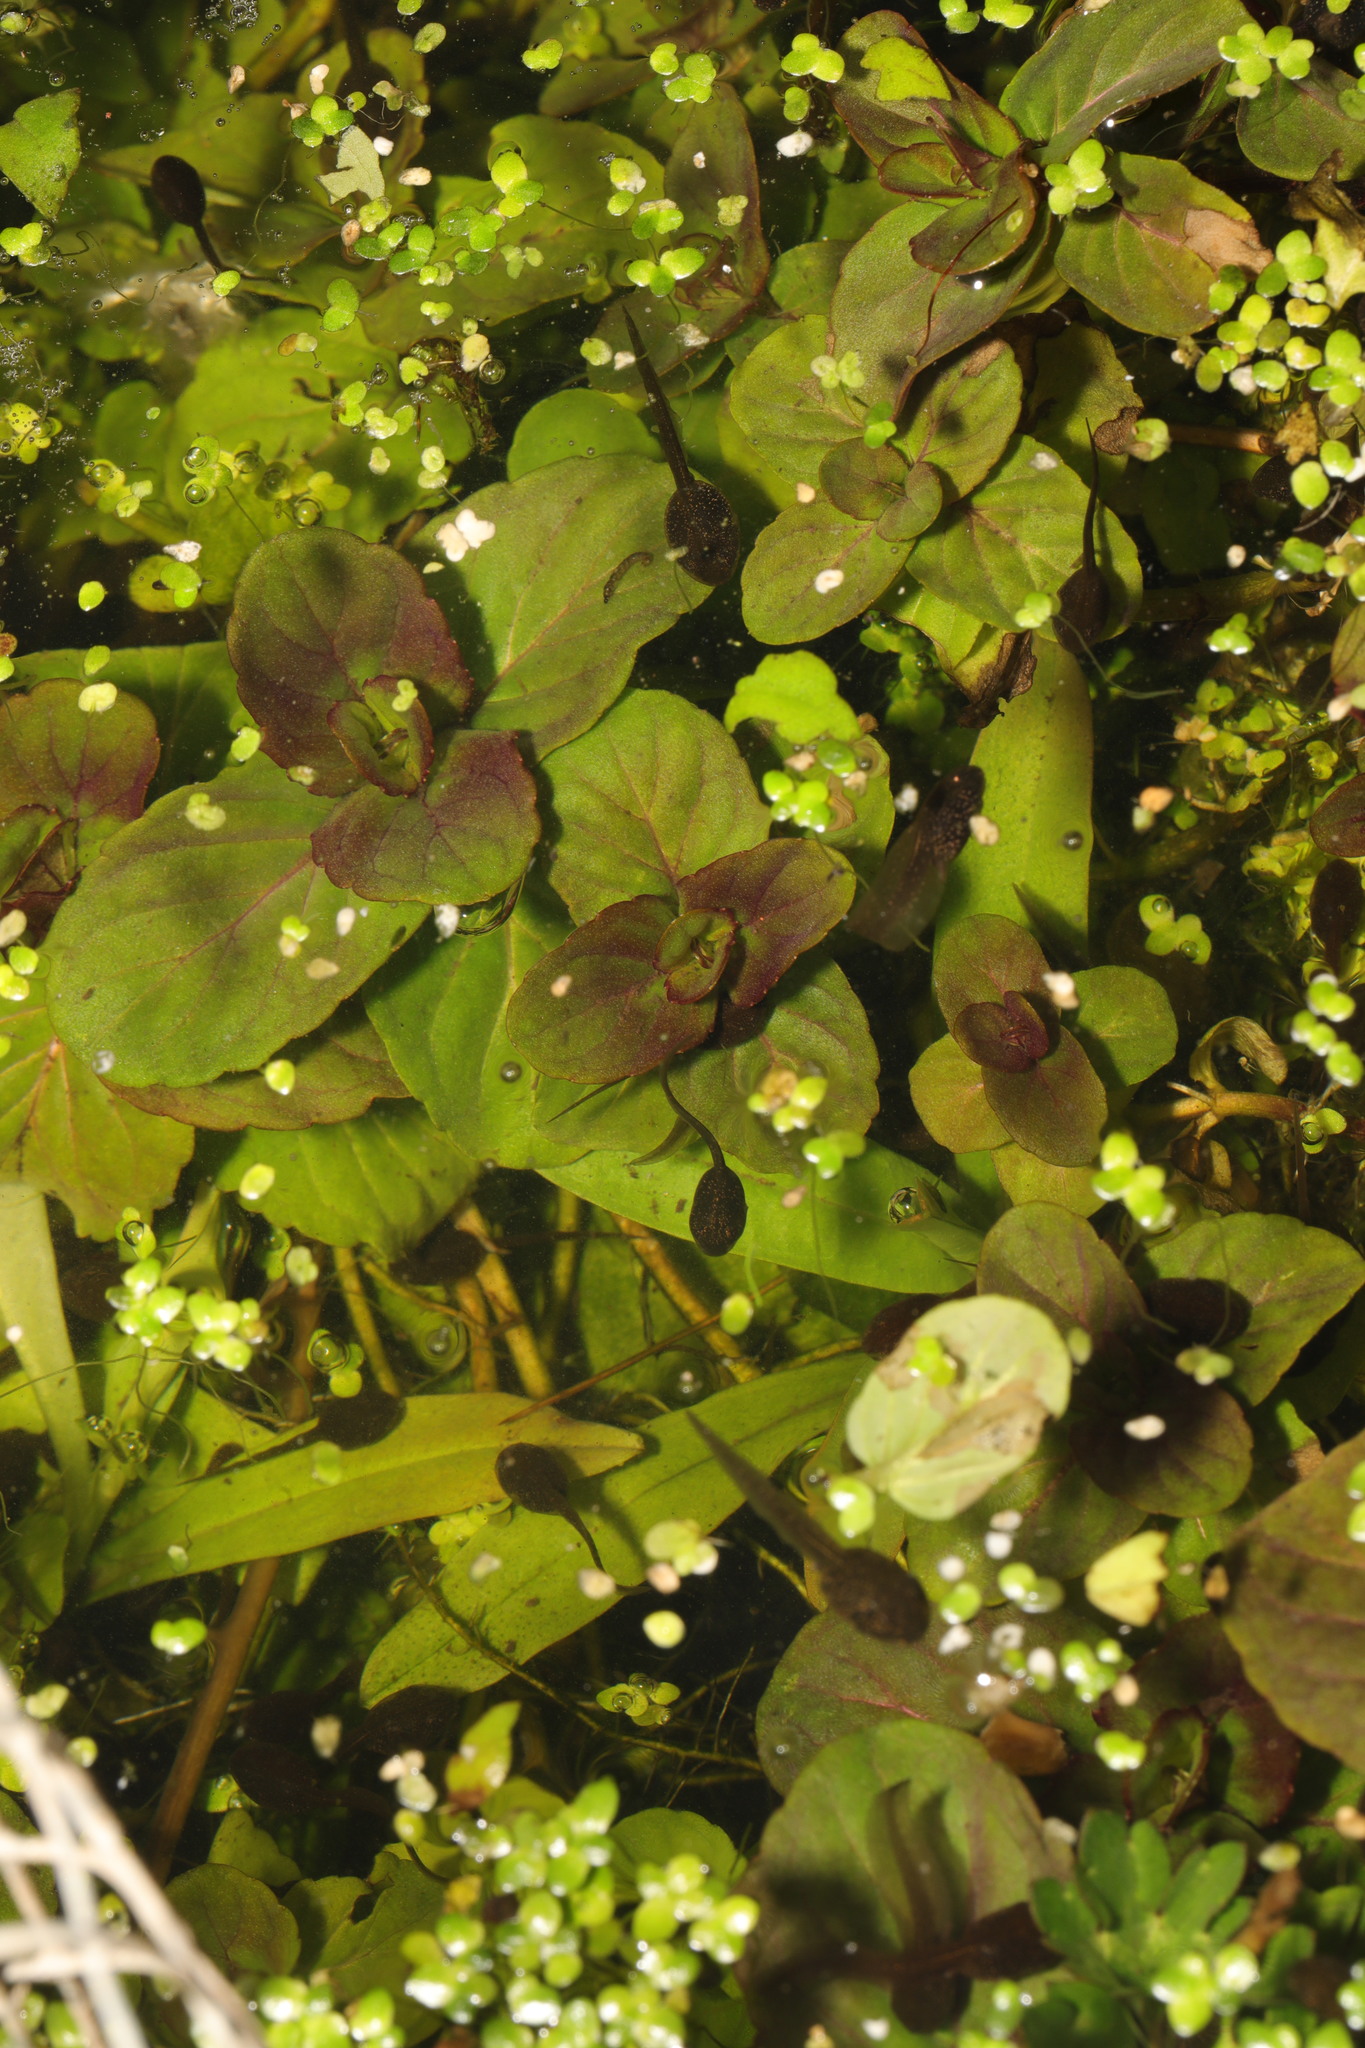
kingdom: Plantae
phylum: Tracheophyta
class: Magnoliopsida
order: Lamiales
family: Lamiaceae
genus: Mentha
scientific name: Mentha aquatica
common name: Water mint
